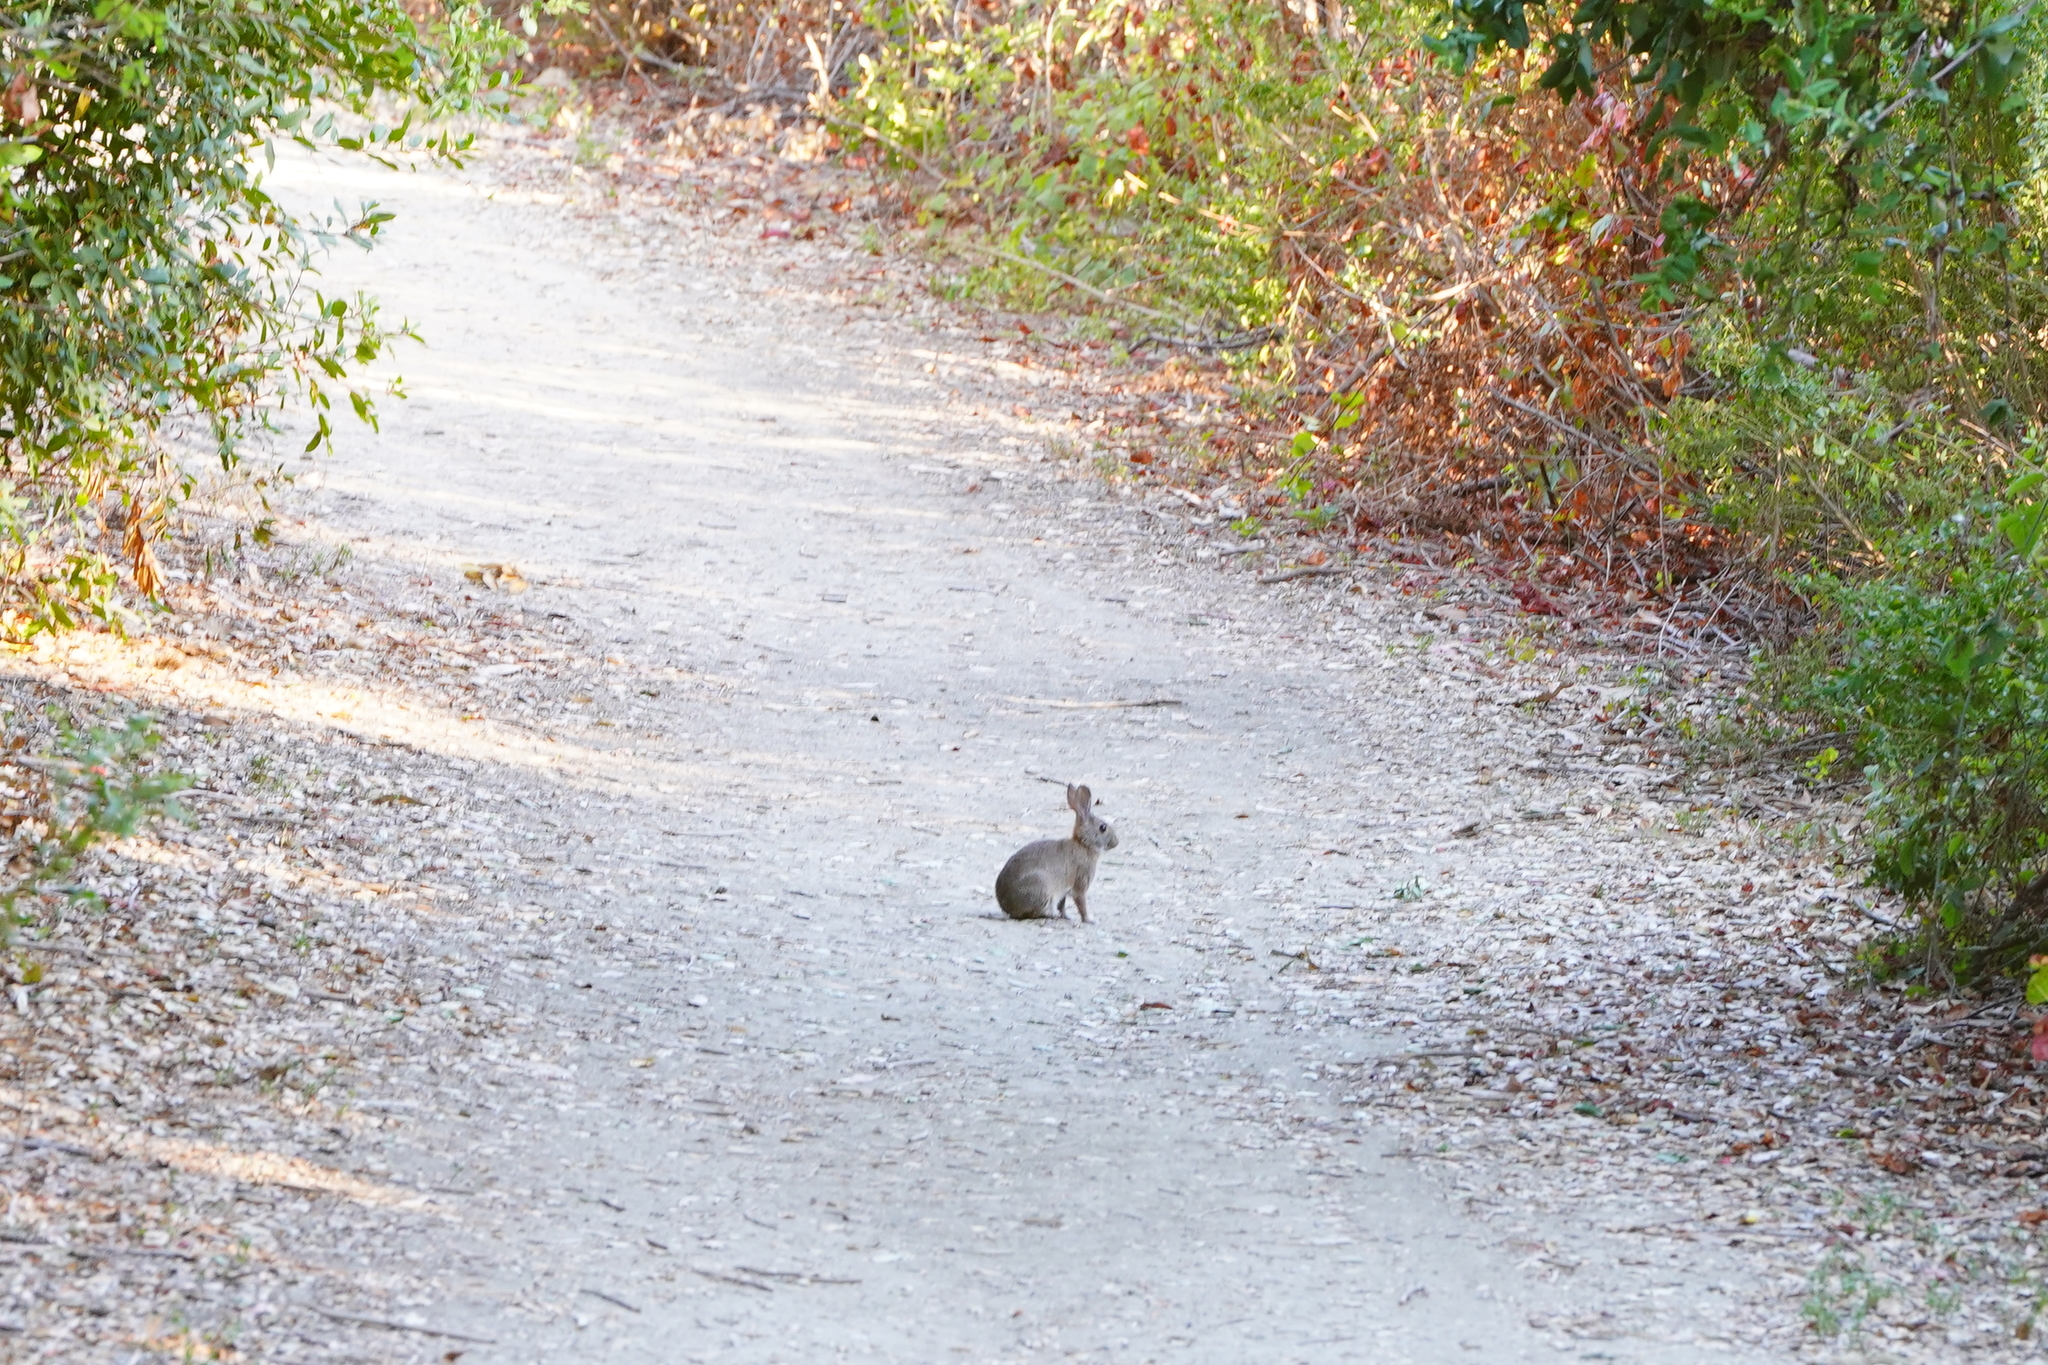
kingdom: Animalia
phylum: Chordata
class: Mammalia
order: Lagomorpha
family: Leporidae
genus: Sylvilagus
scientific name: Sylvilagus bachmani
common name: Brush rabbit
